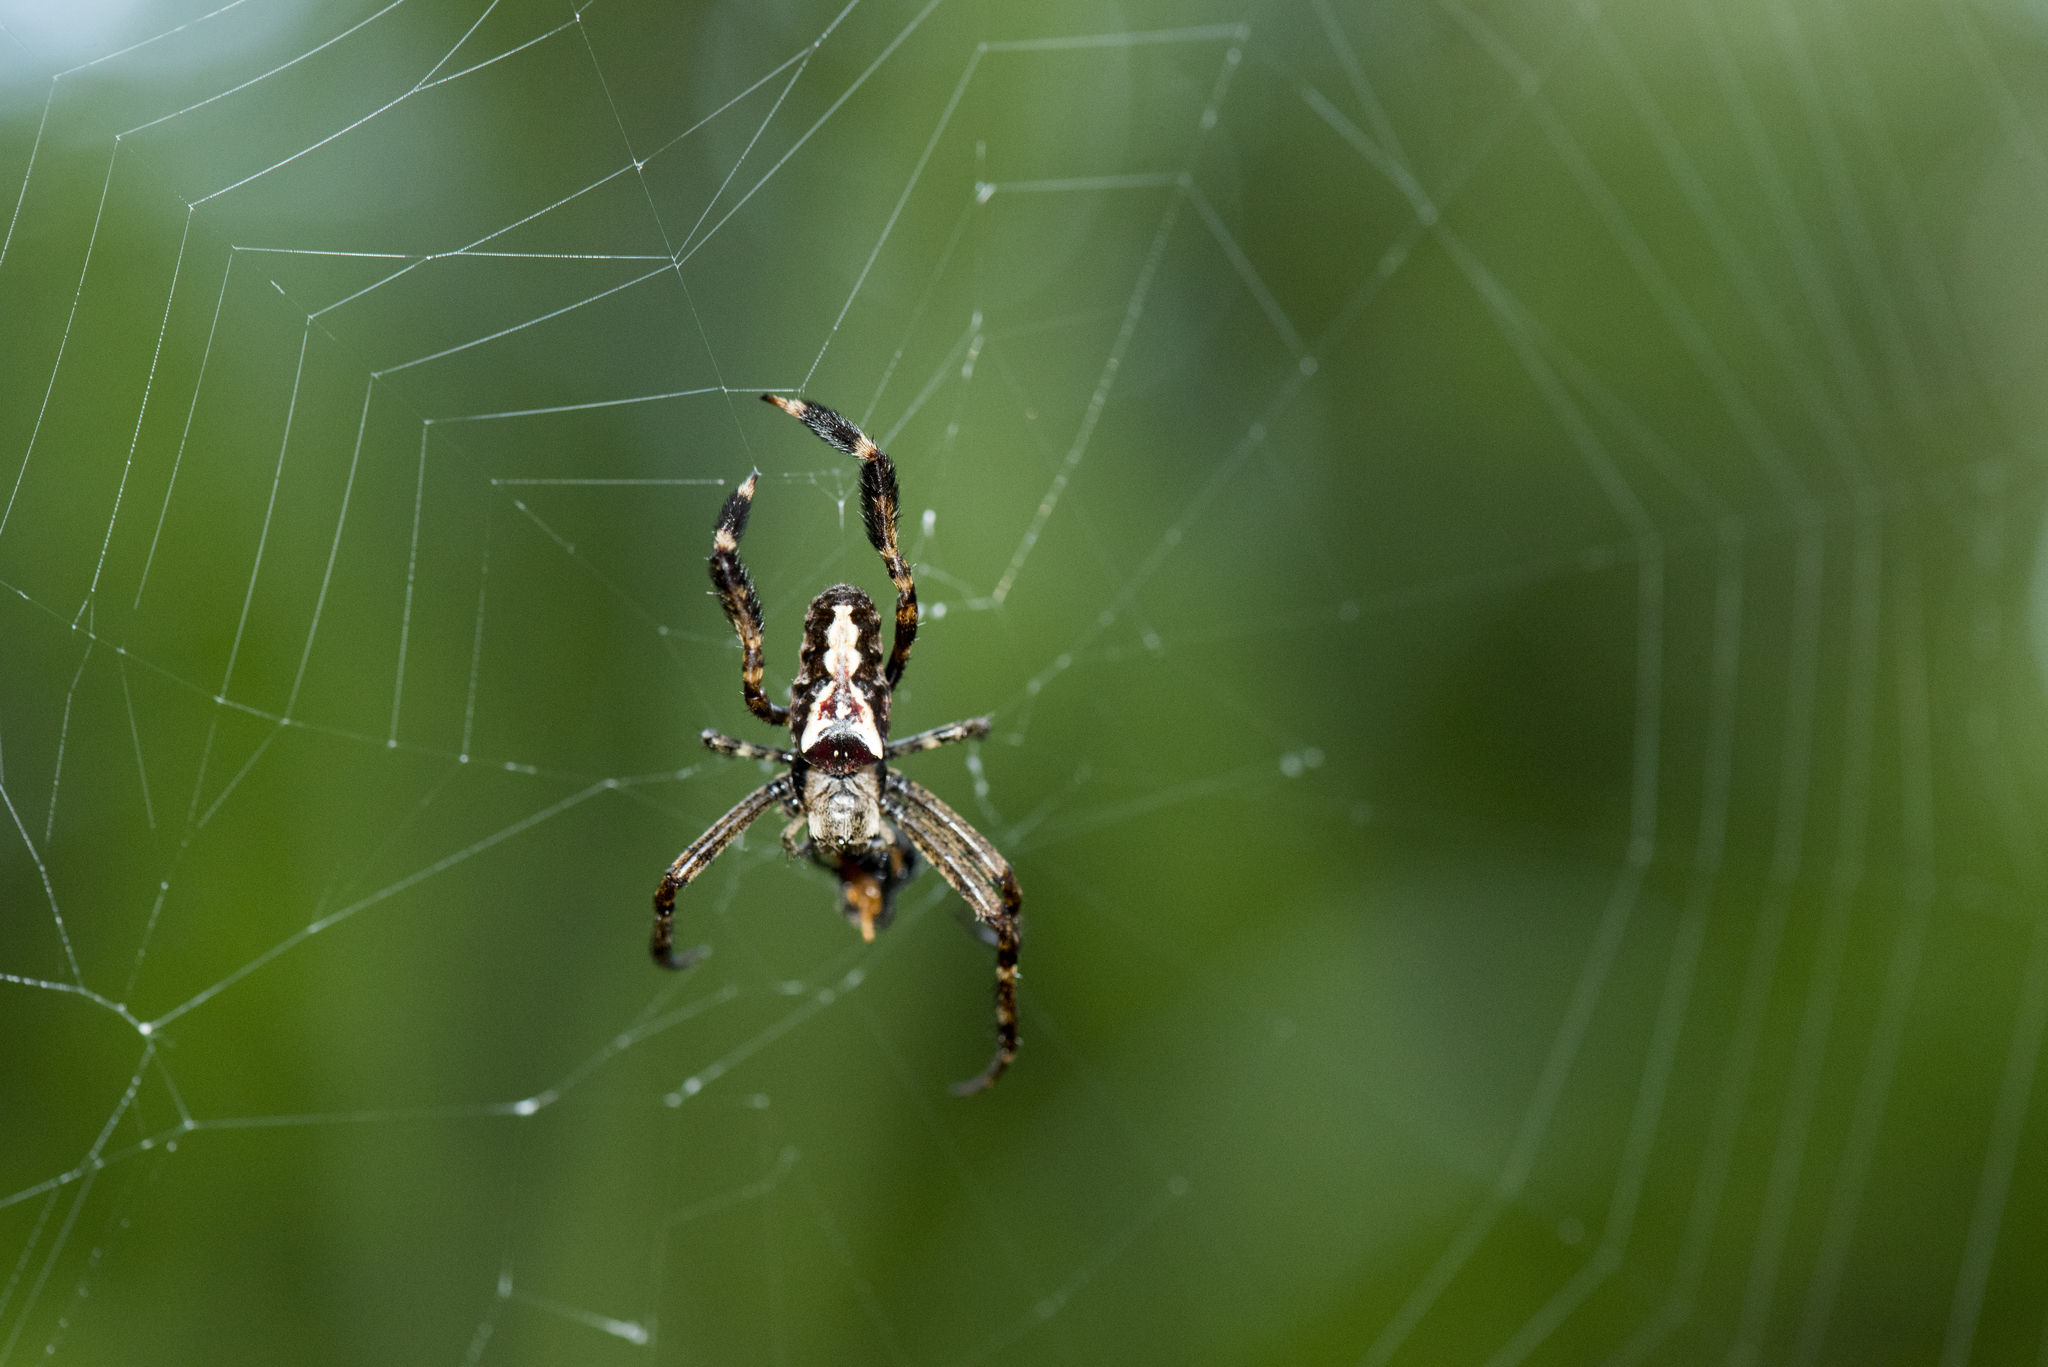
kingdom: Animalia
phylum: Arthropoda
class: Arachnida
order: Araneae
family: Araneidae
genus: Plebs
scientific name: Plebs plumiopedellus
